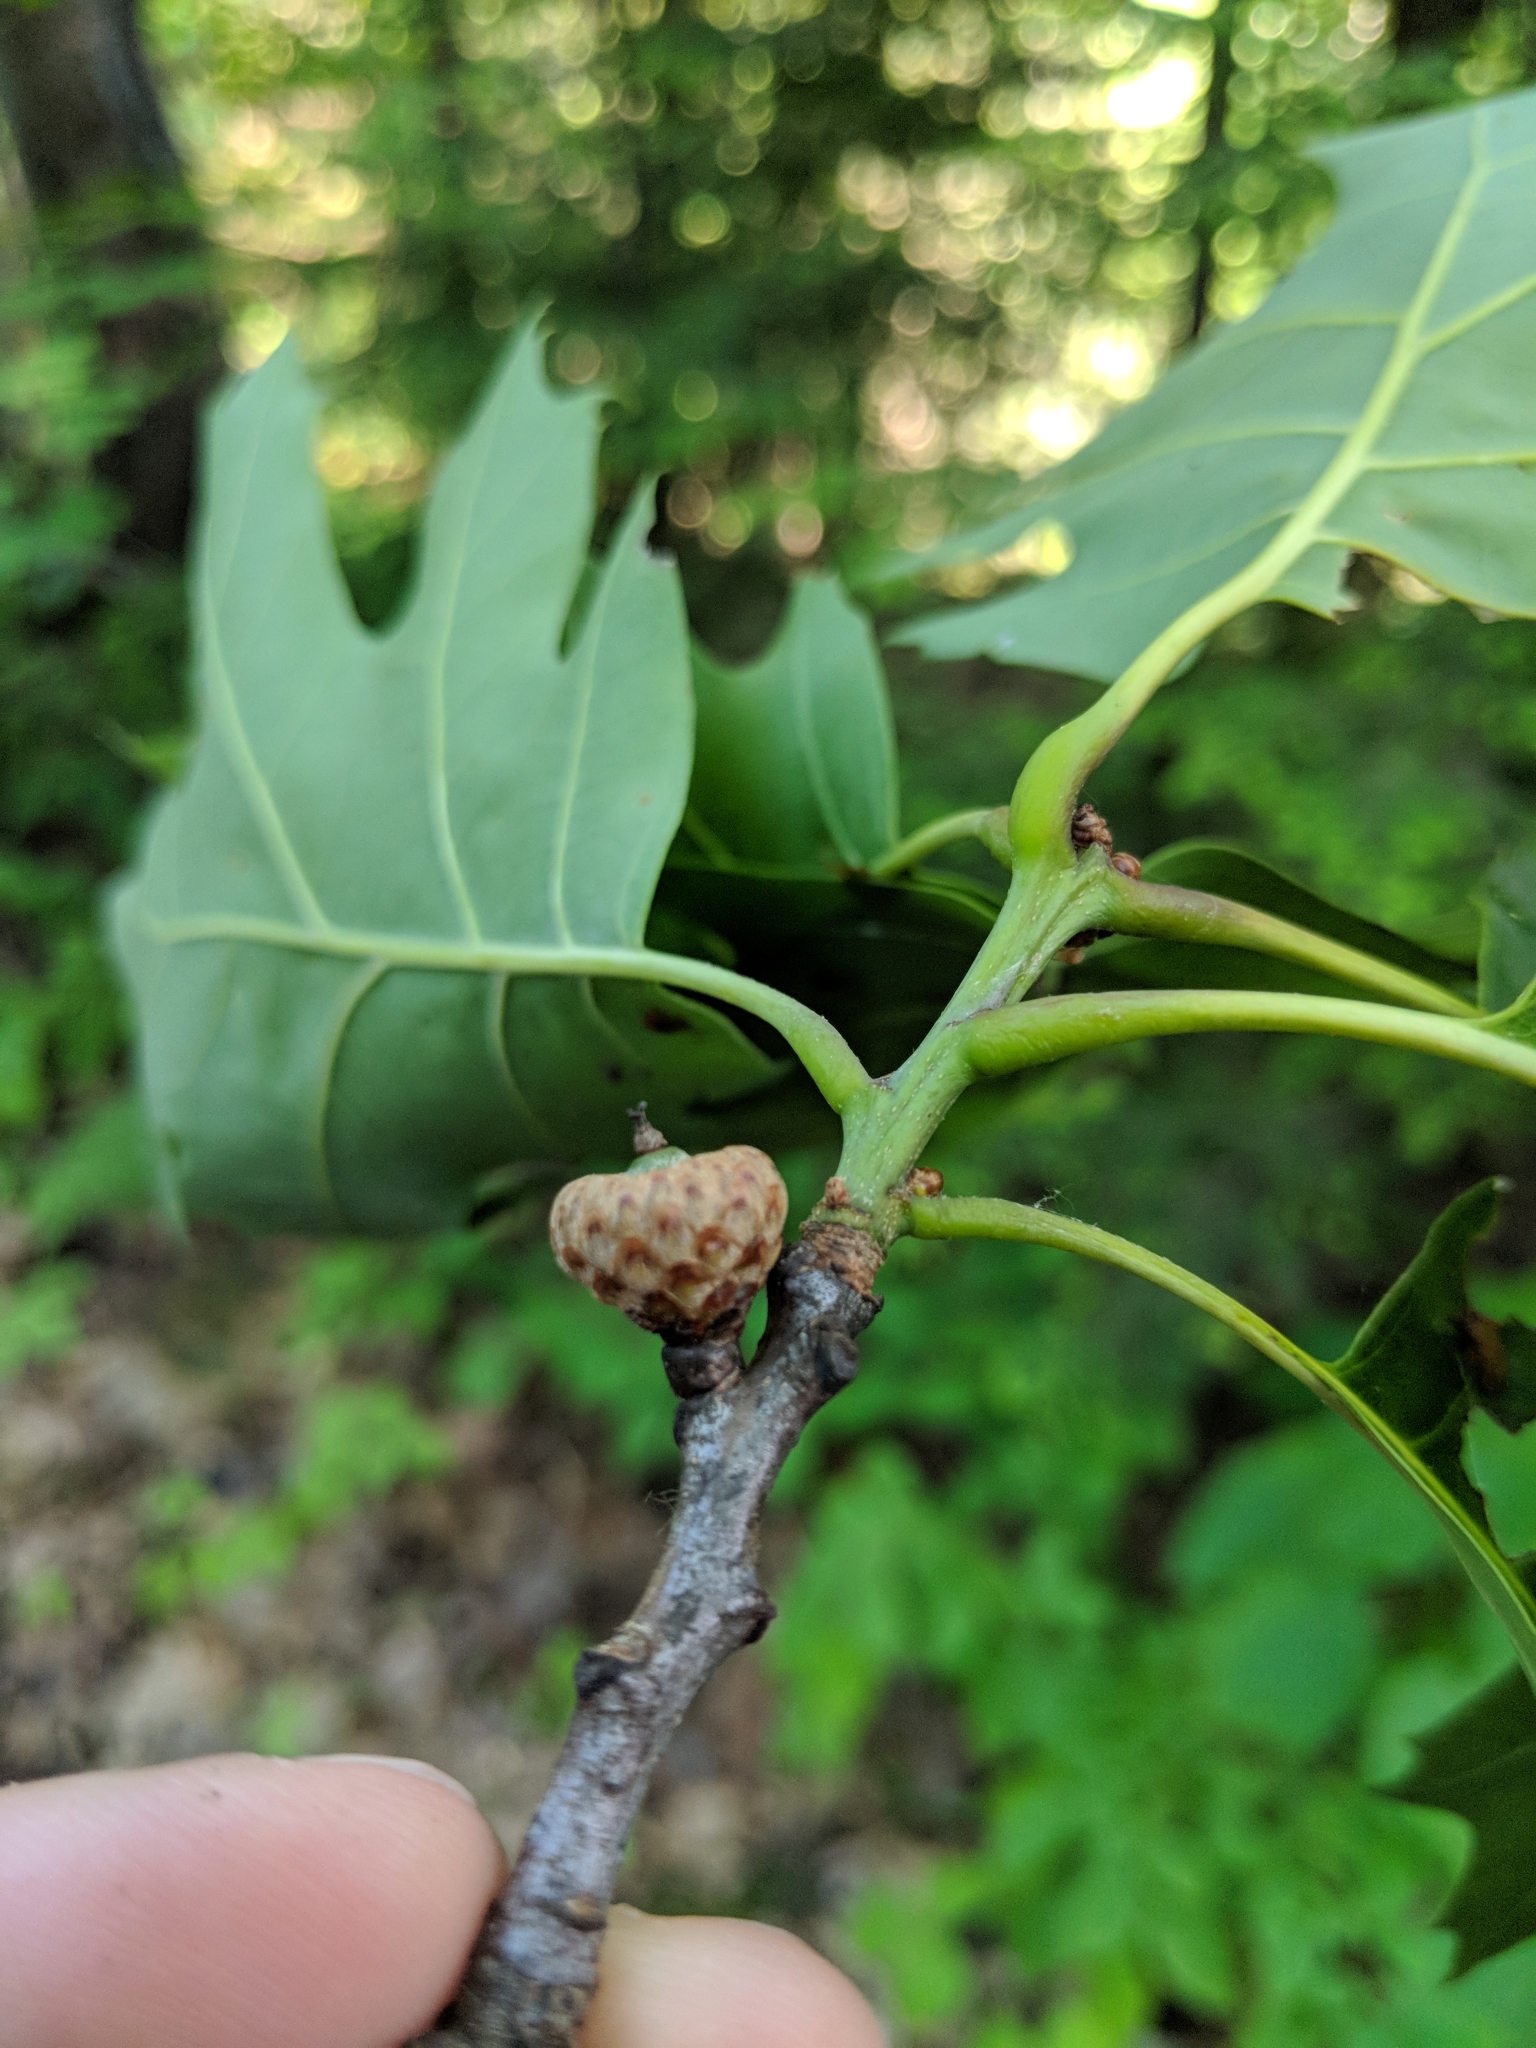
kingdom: Plantae
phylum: Tracheophyta
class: Magnoliopsida
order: Fagales
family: Fagaceae
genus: Quercus
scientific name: Quercus rubra
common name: Red oak
